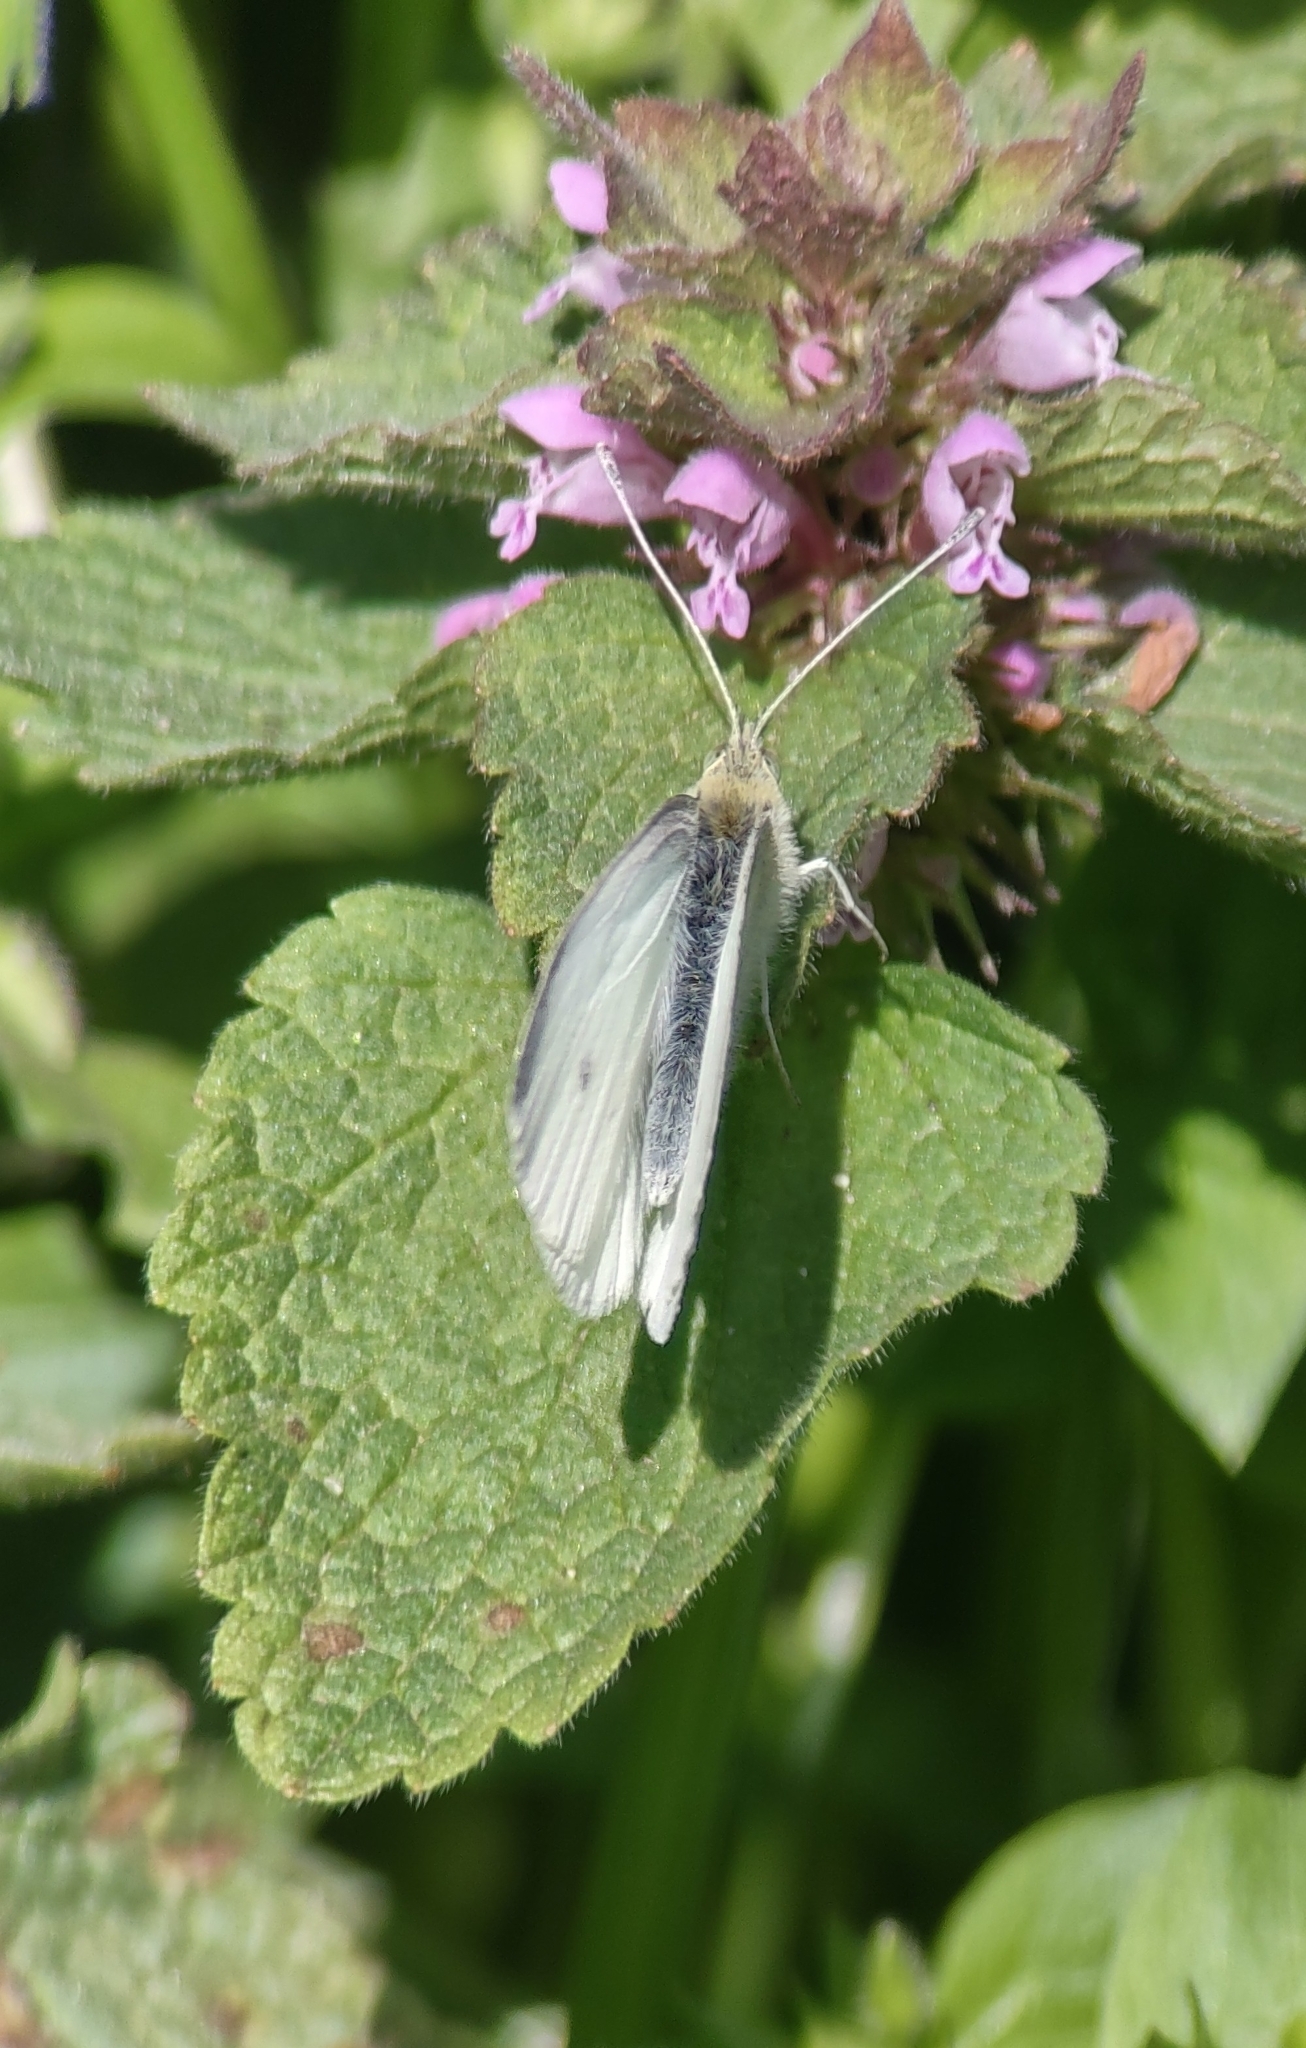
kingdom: Animalia
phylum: Arthropoda
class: Insecta
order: Lepidoptera
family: Pieridae
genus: Pieris
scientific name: Pieris rapae
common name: Small white
